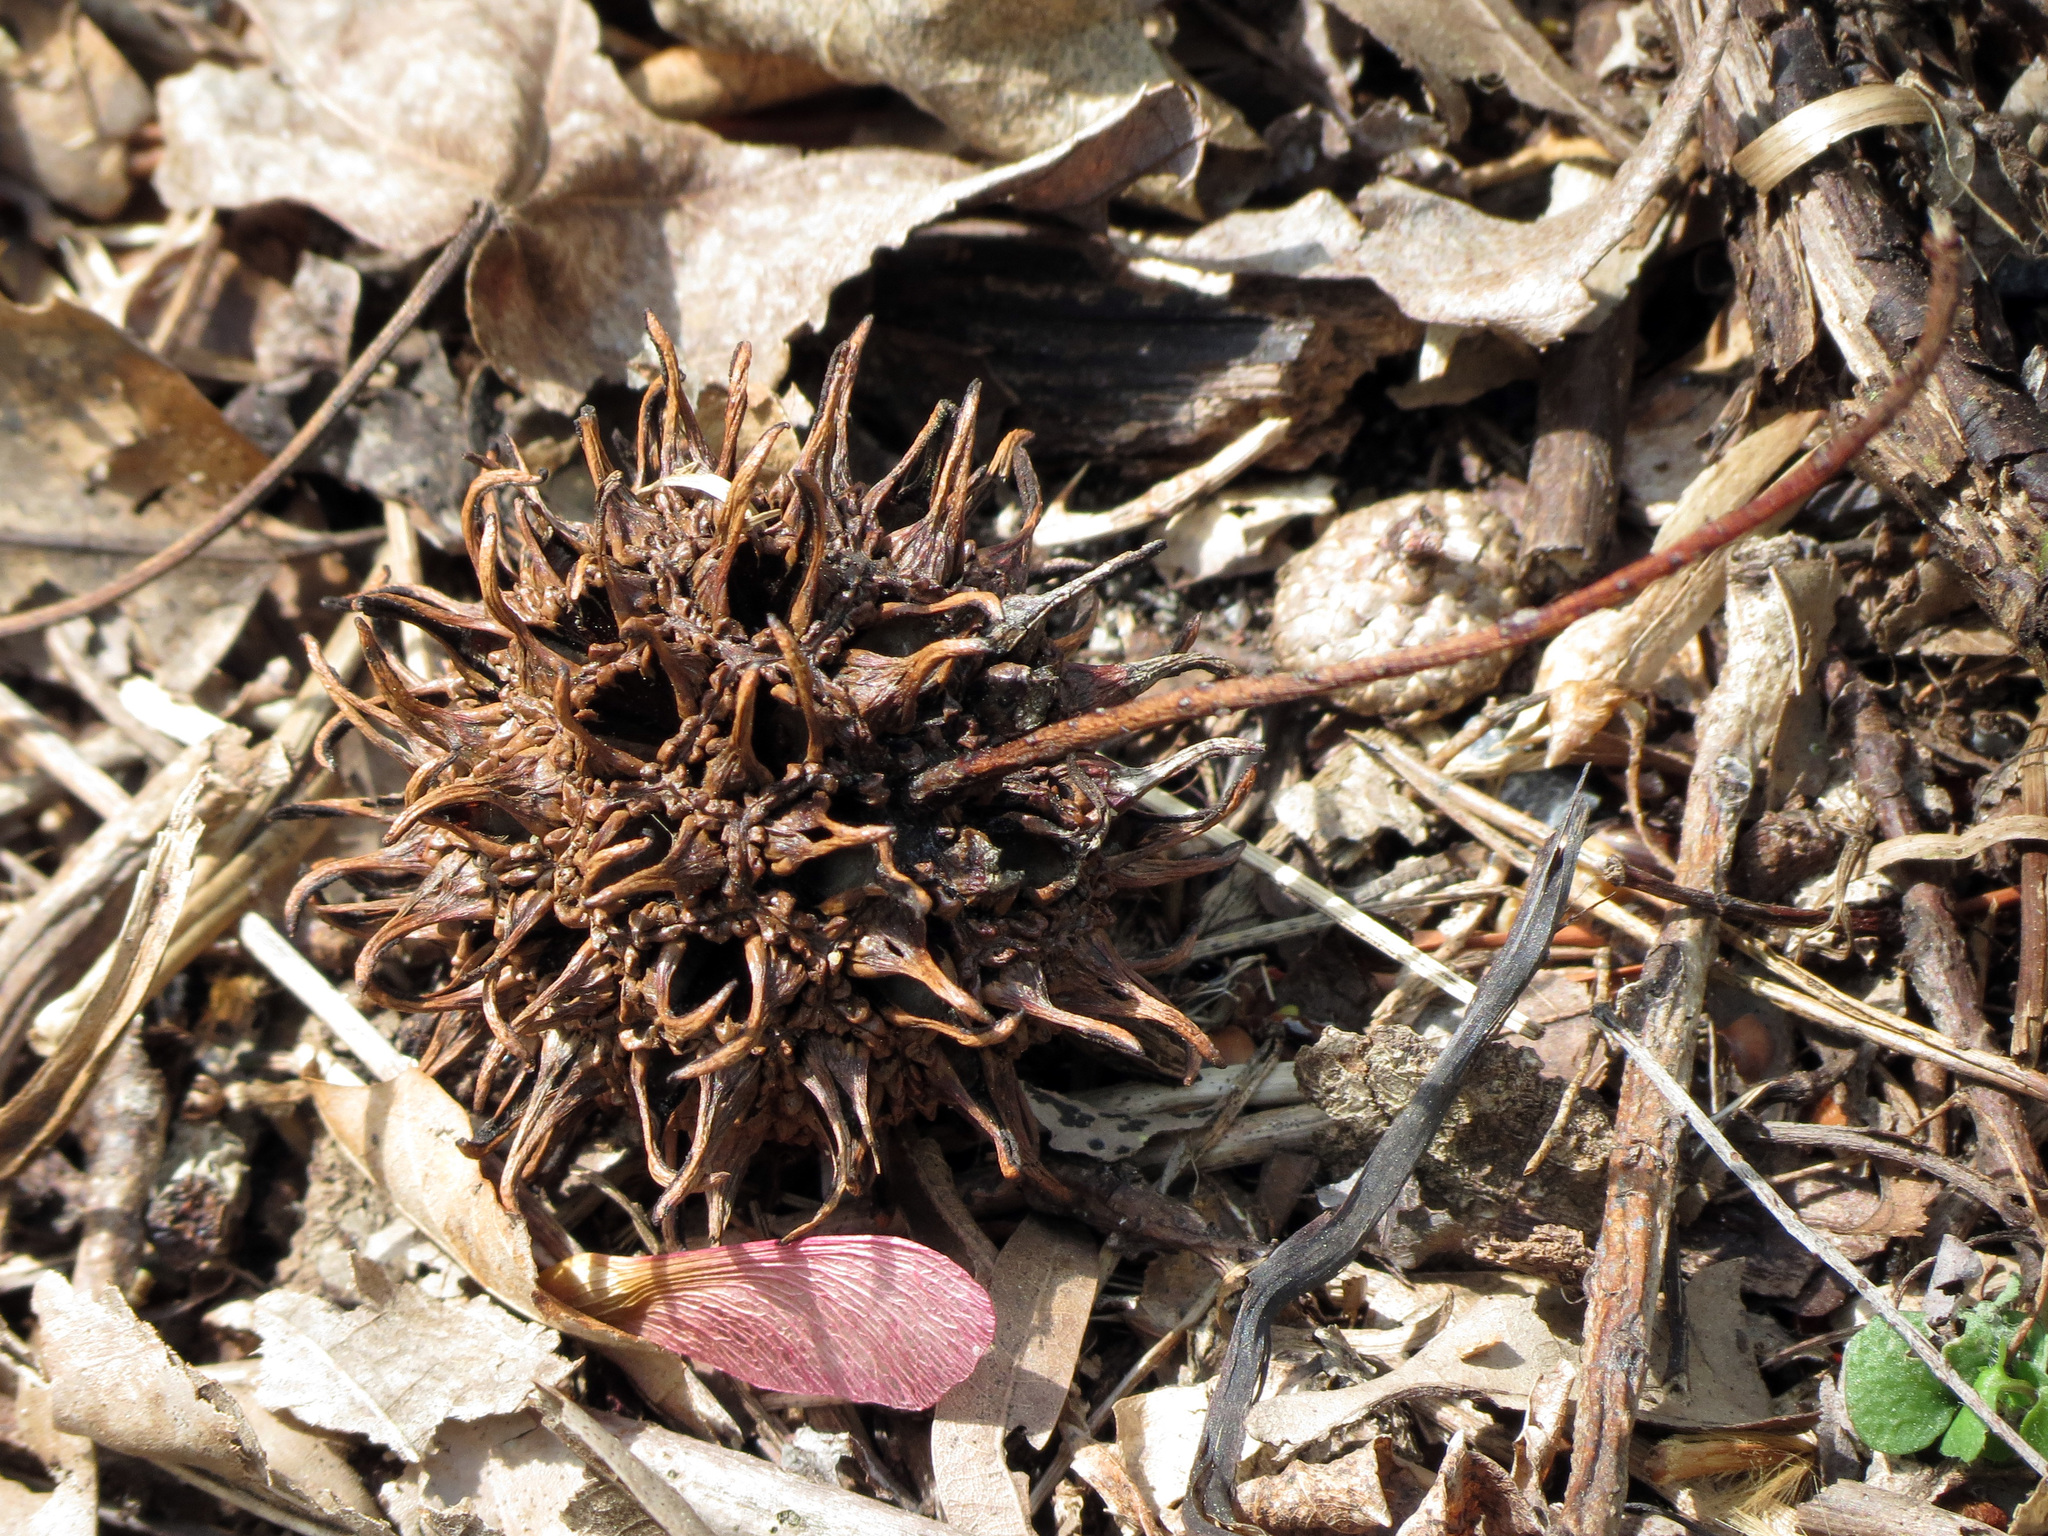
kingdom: Plantae
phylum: Tracheophyta
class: Magnoliopsida
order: Saxifragales
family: Altingiaceae
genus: Liquidambar
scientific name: Liquidambar styraciflua
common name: Sweet gum
